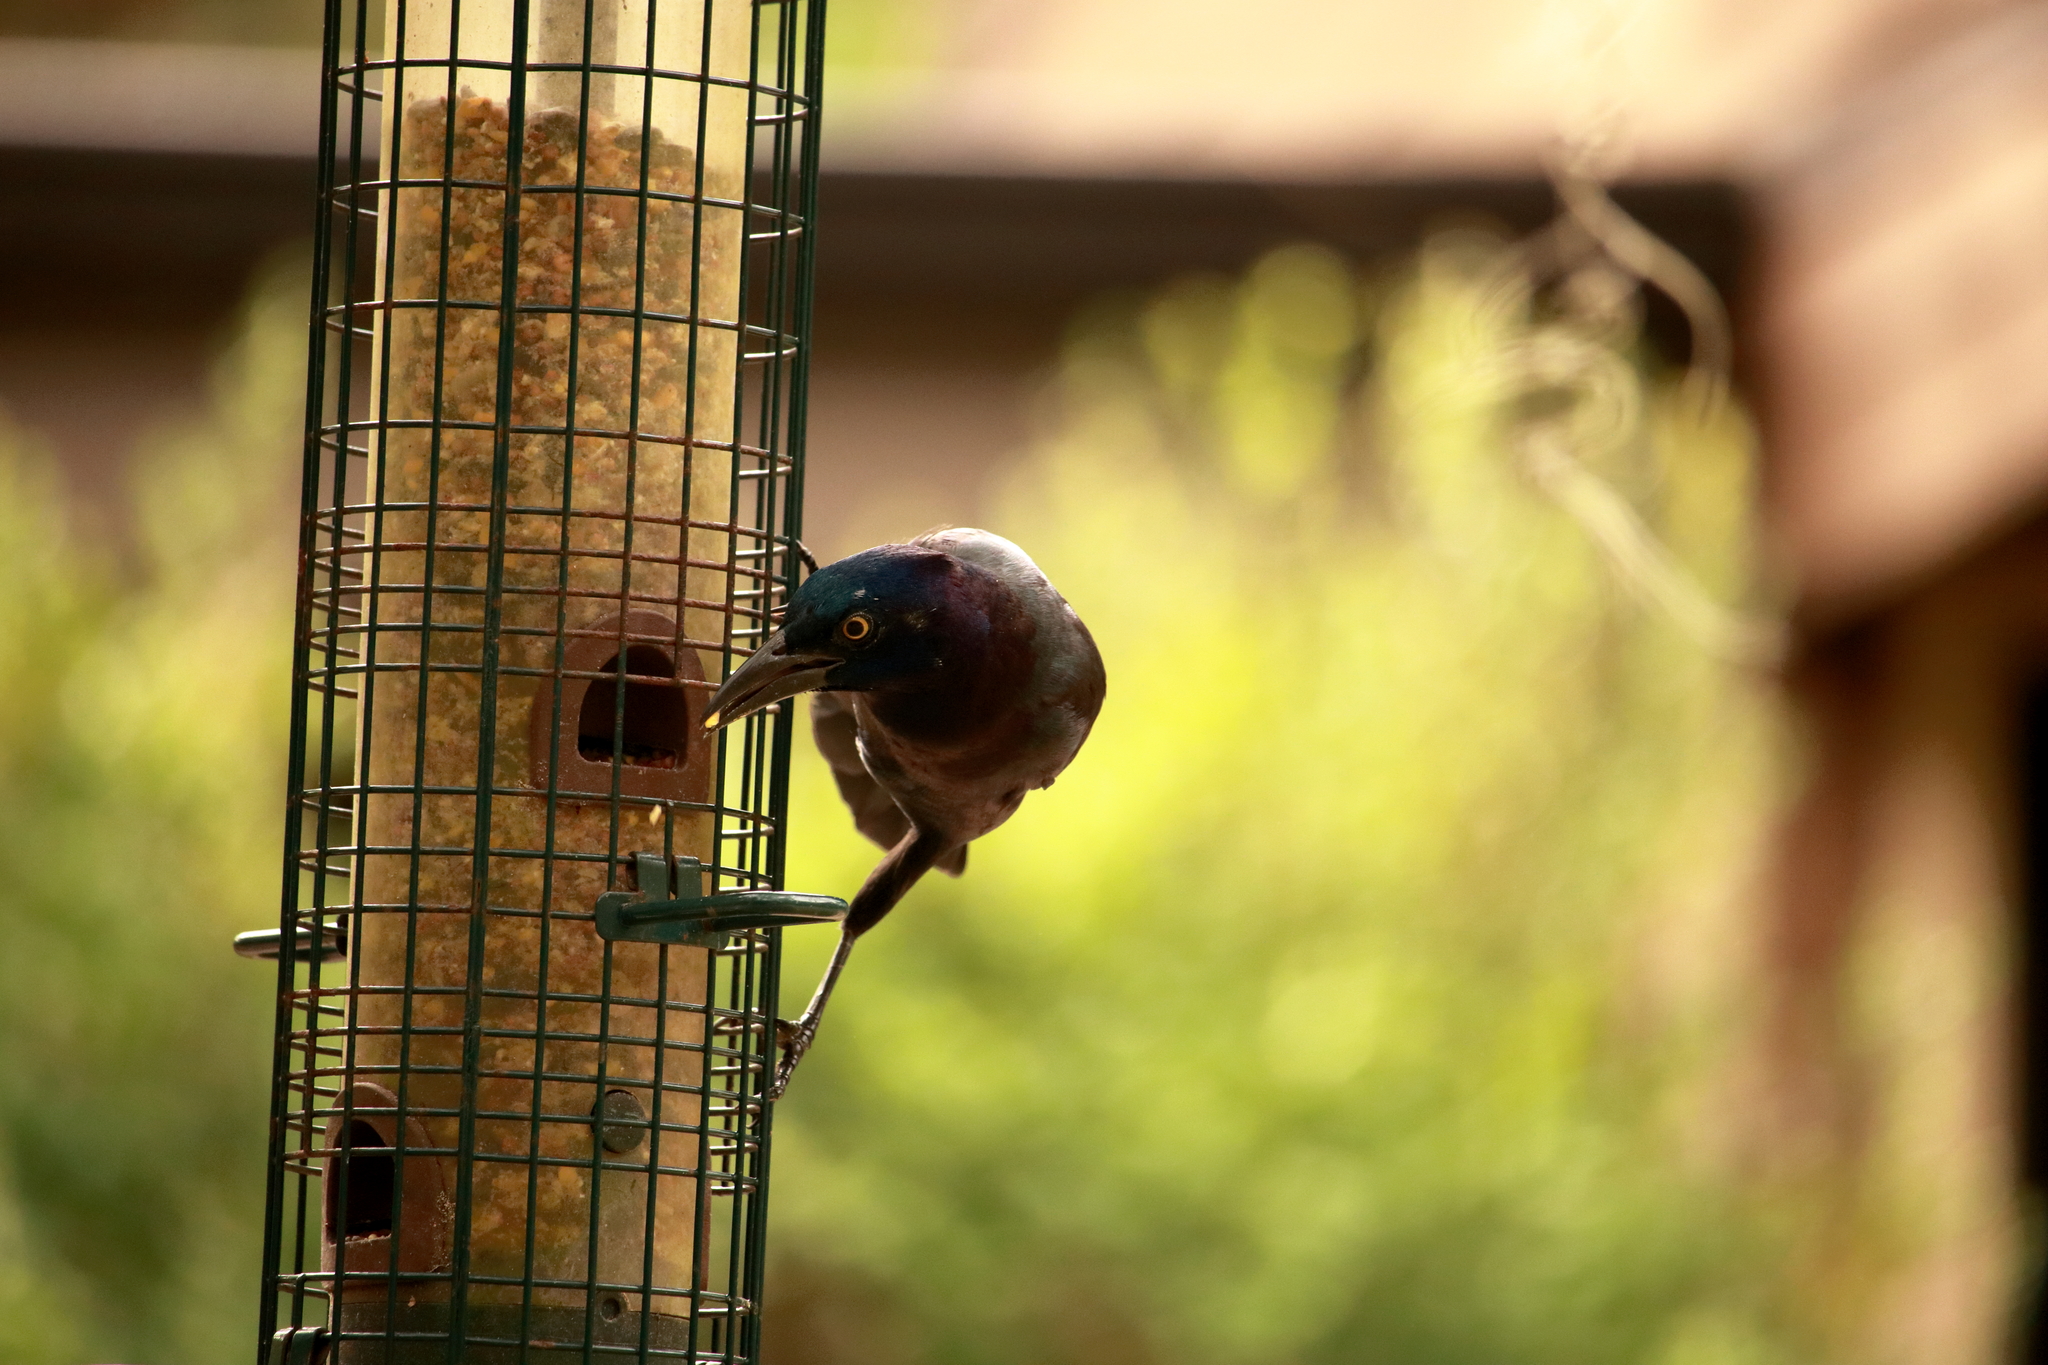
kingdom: Animalia
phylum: Chordata
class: Aves
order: Passeriformes
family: Icteridae
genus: Quiscalus
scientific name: Quiscalus quiscula
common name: Common grackle
